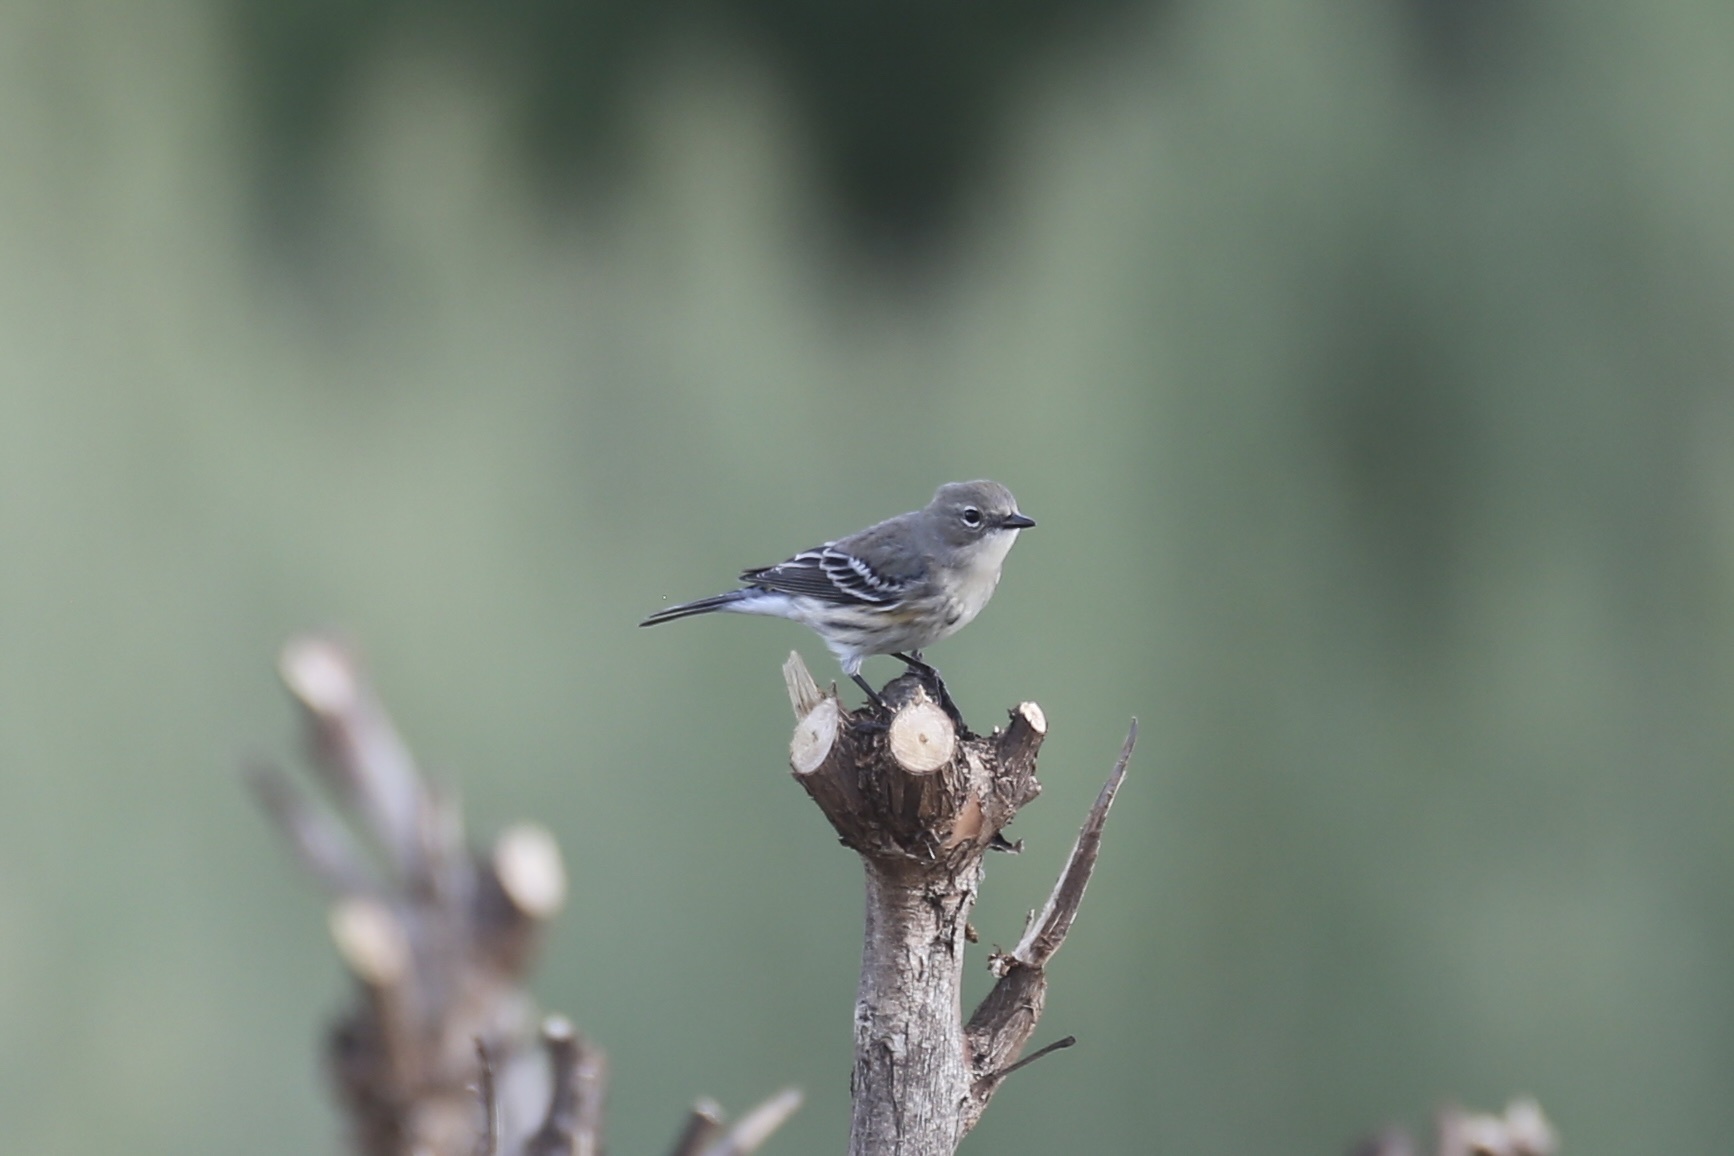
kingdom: Animalia
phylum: Chordata
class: Aves
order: Passeriformes
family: Parulidae
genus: Setophaga
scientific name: Setophaga coronata
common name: Myrtle warbler
